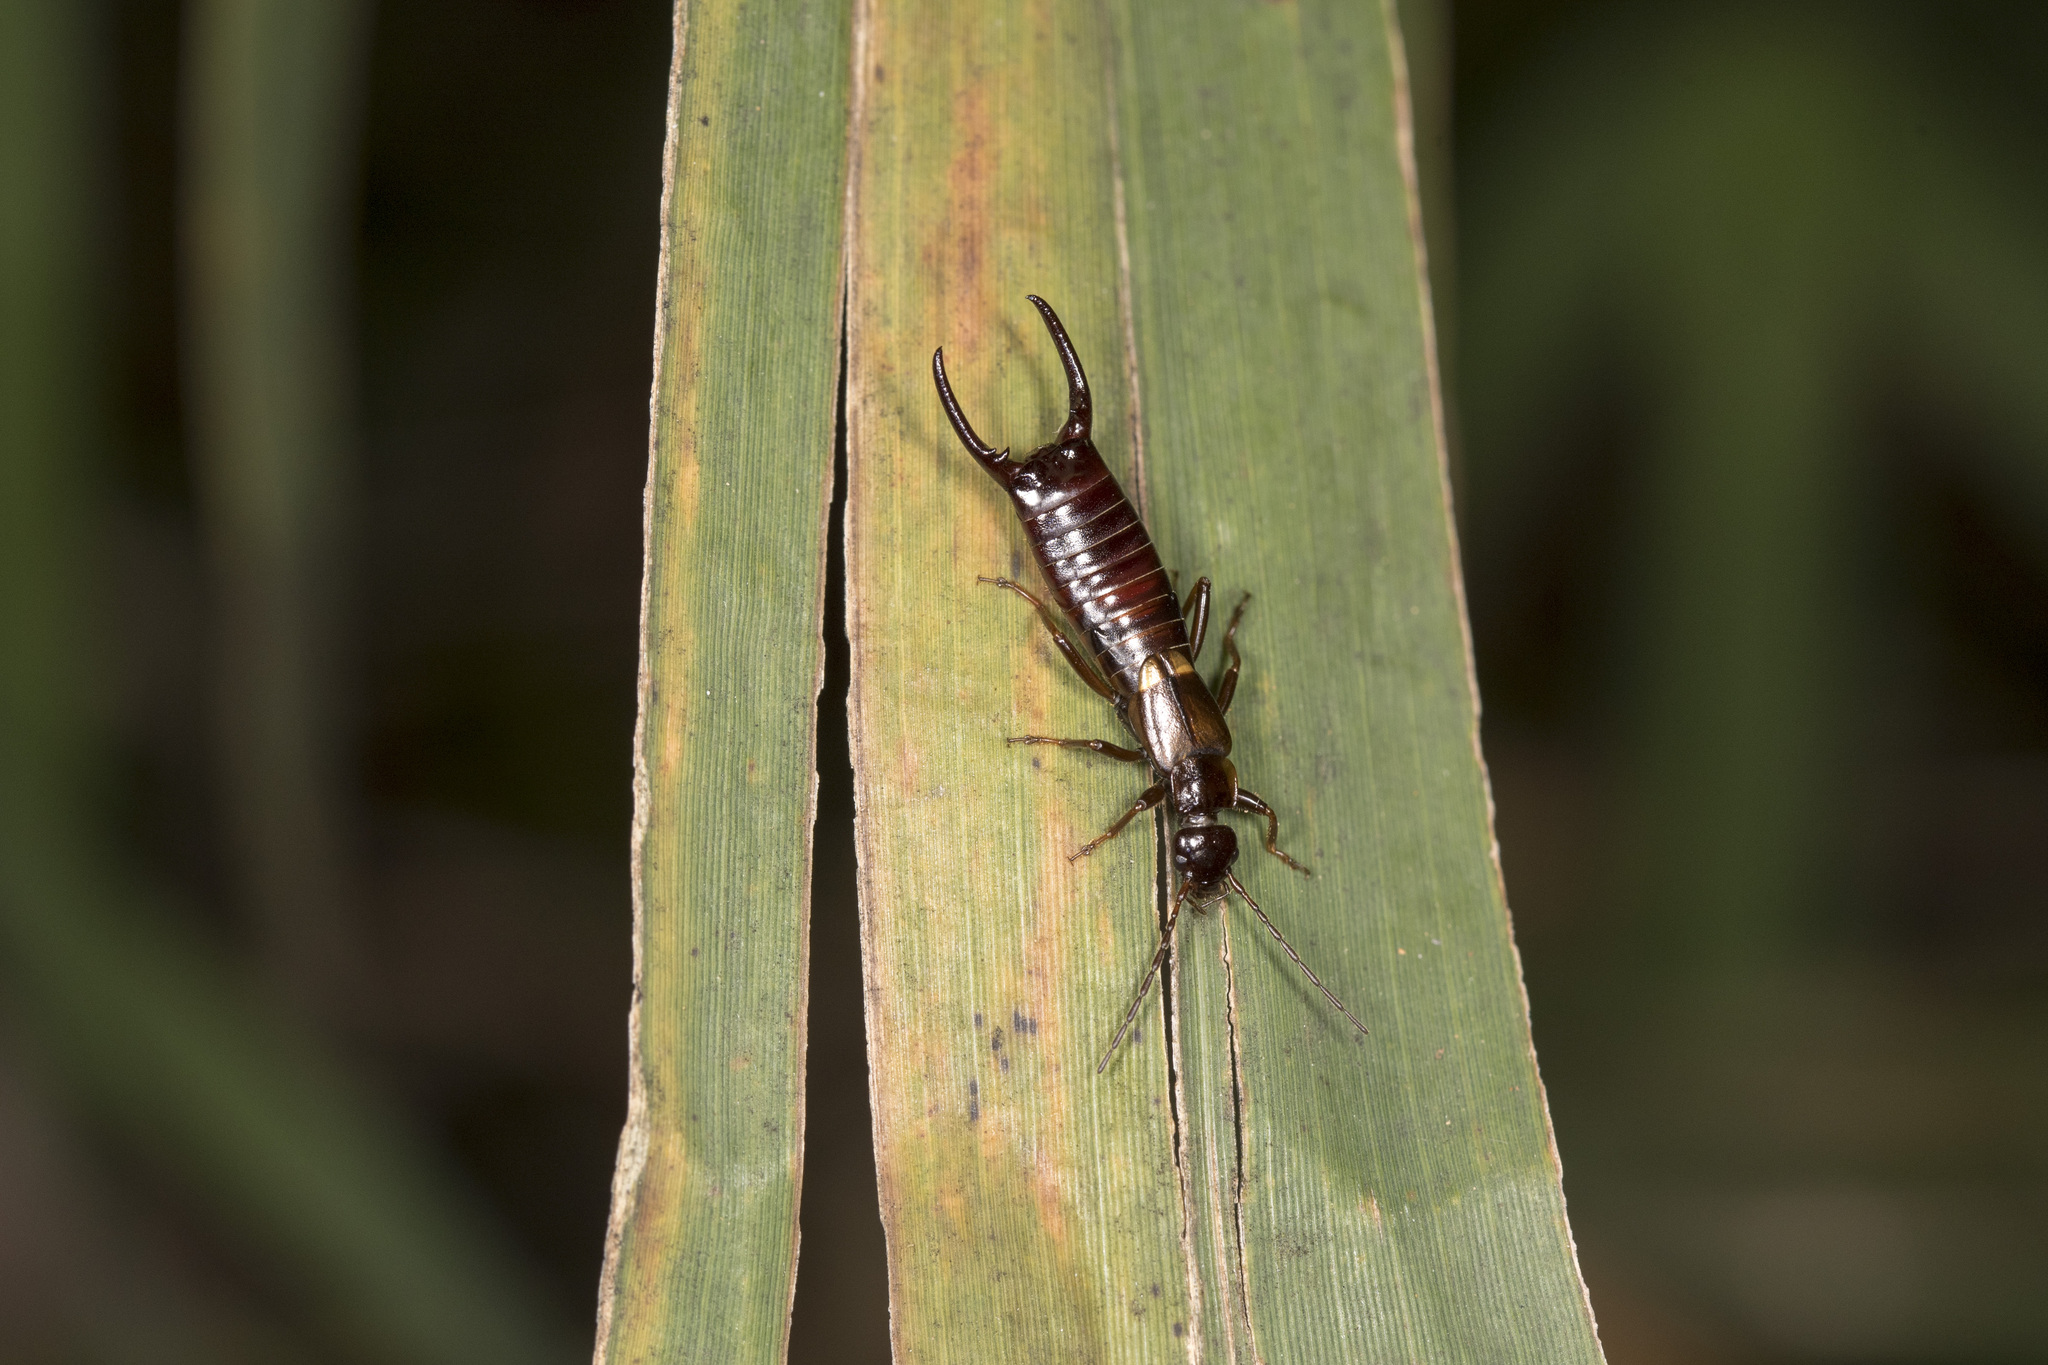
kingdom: Animalia
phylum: Arthropoda
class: Insecta
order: Dermaptera
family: Forficulidae
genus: Anechura
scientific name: Anechura harmandi
